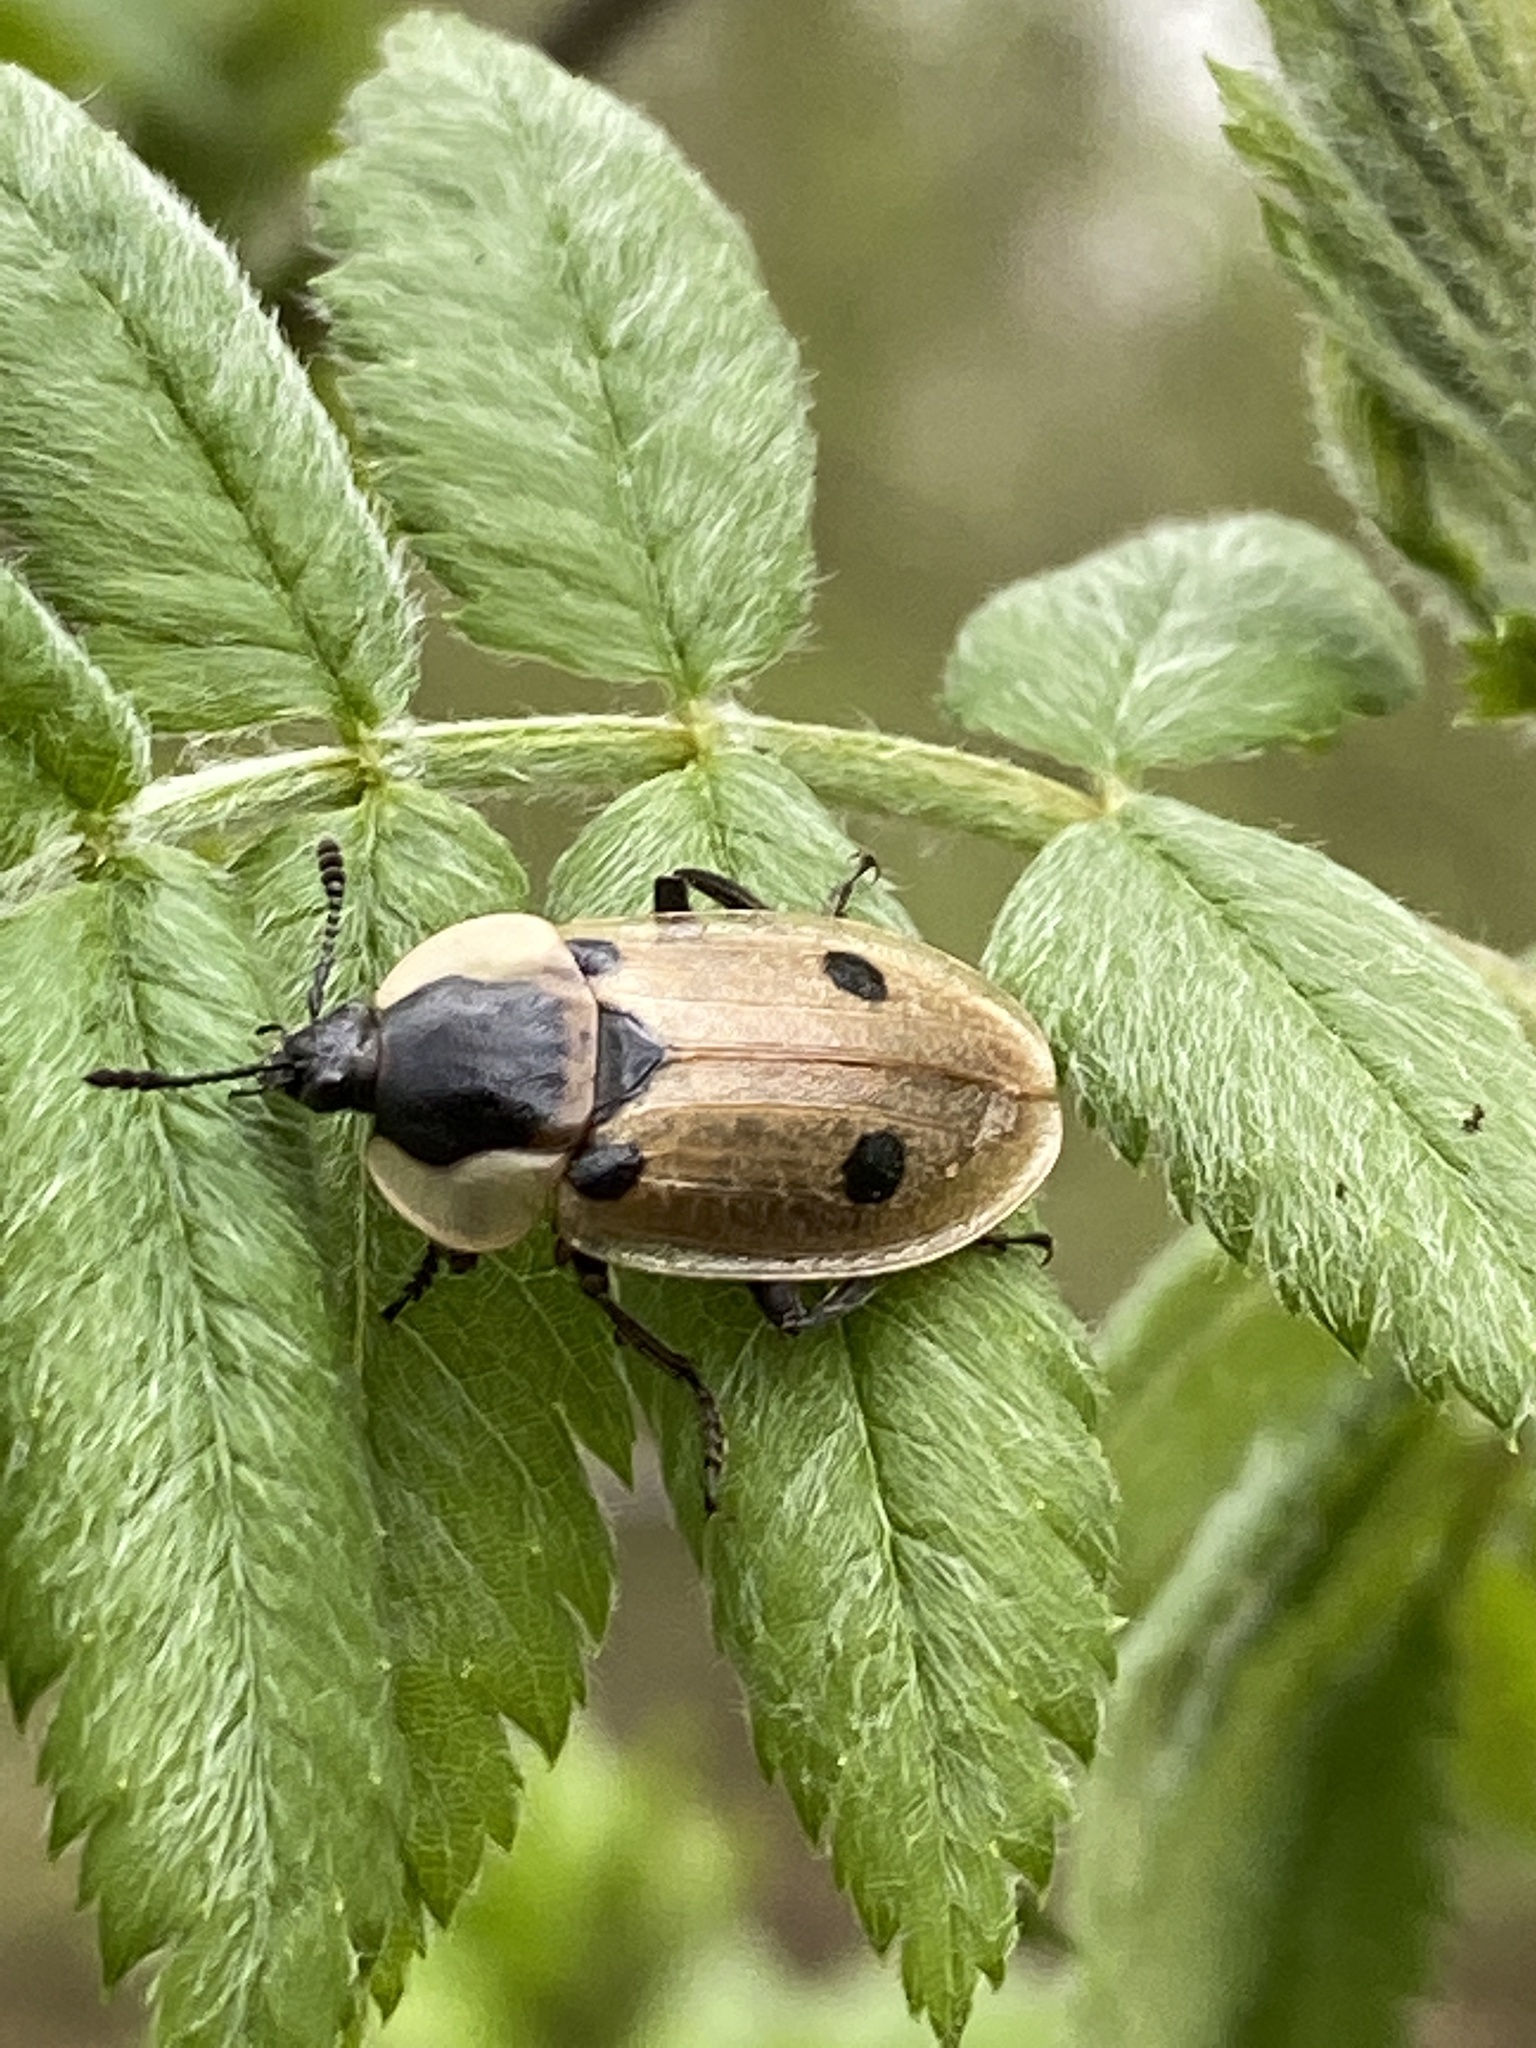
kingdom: Animalia
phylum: Arthropoda
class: Insecta
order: Coleoptera
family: Staphylinidae
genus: Dendroxena
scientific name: Dendroxena quadrimaculata
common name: Carrion beetle
